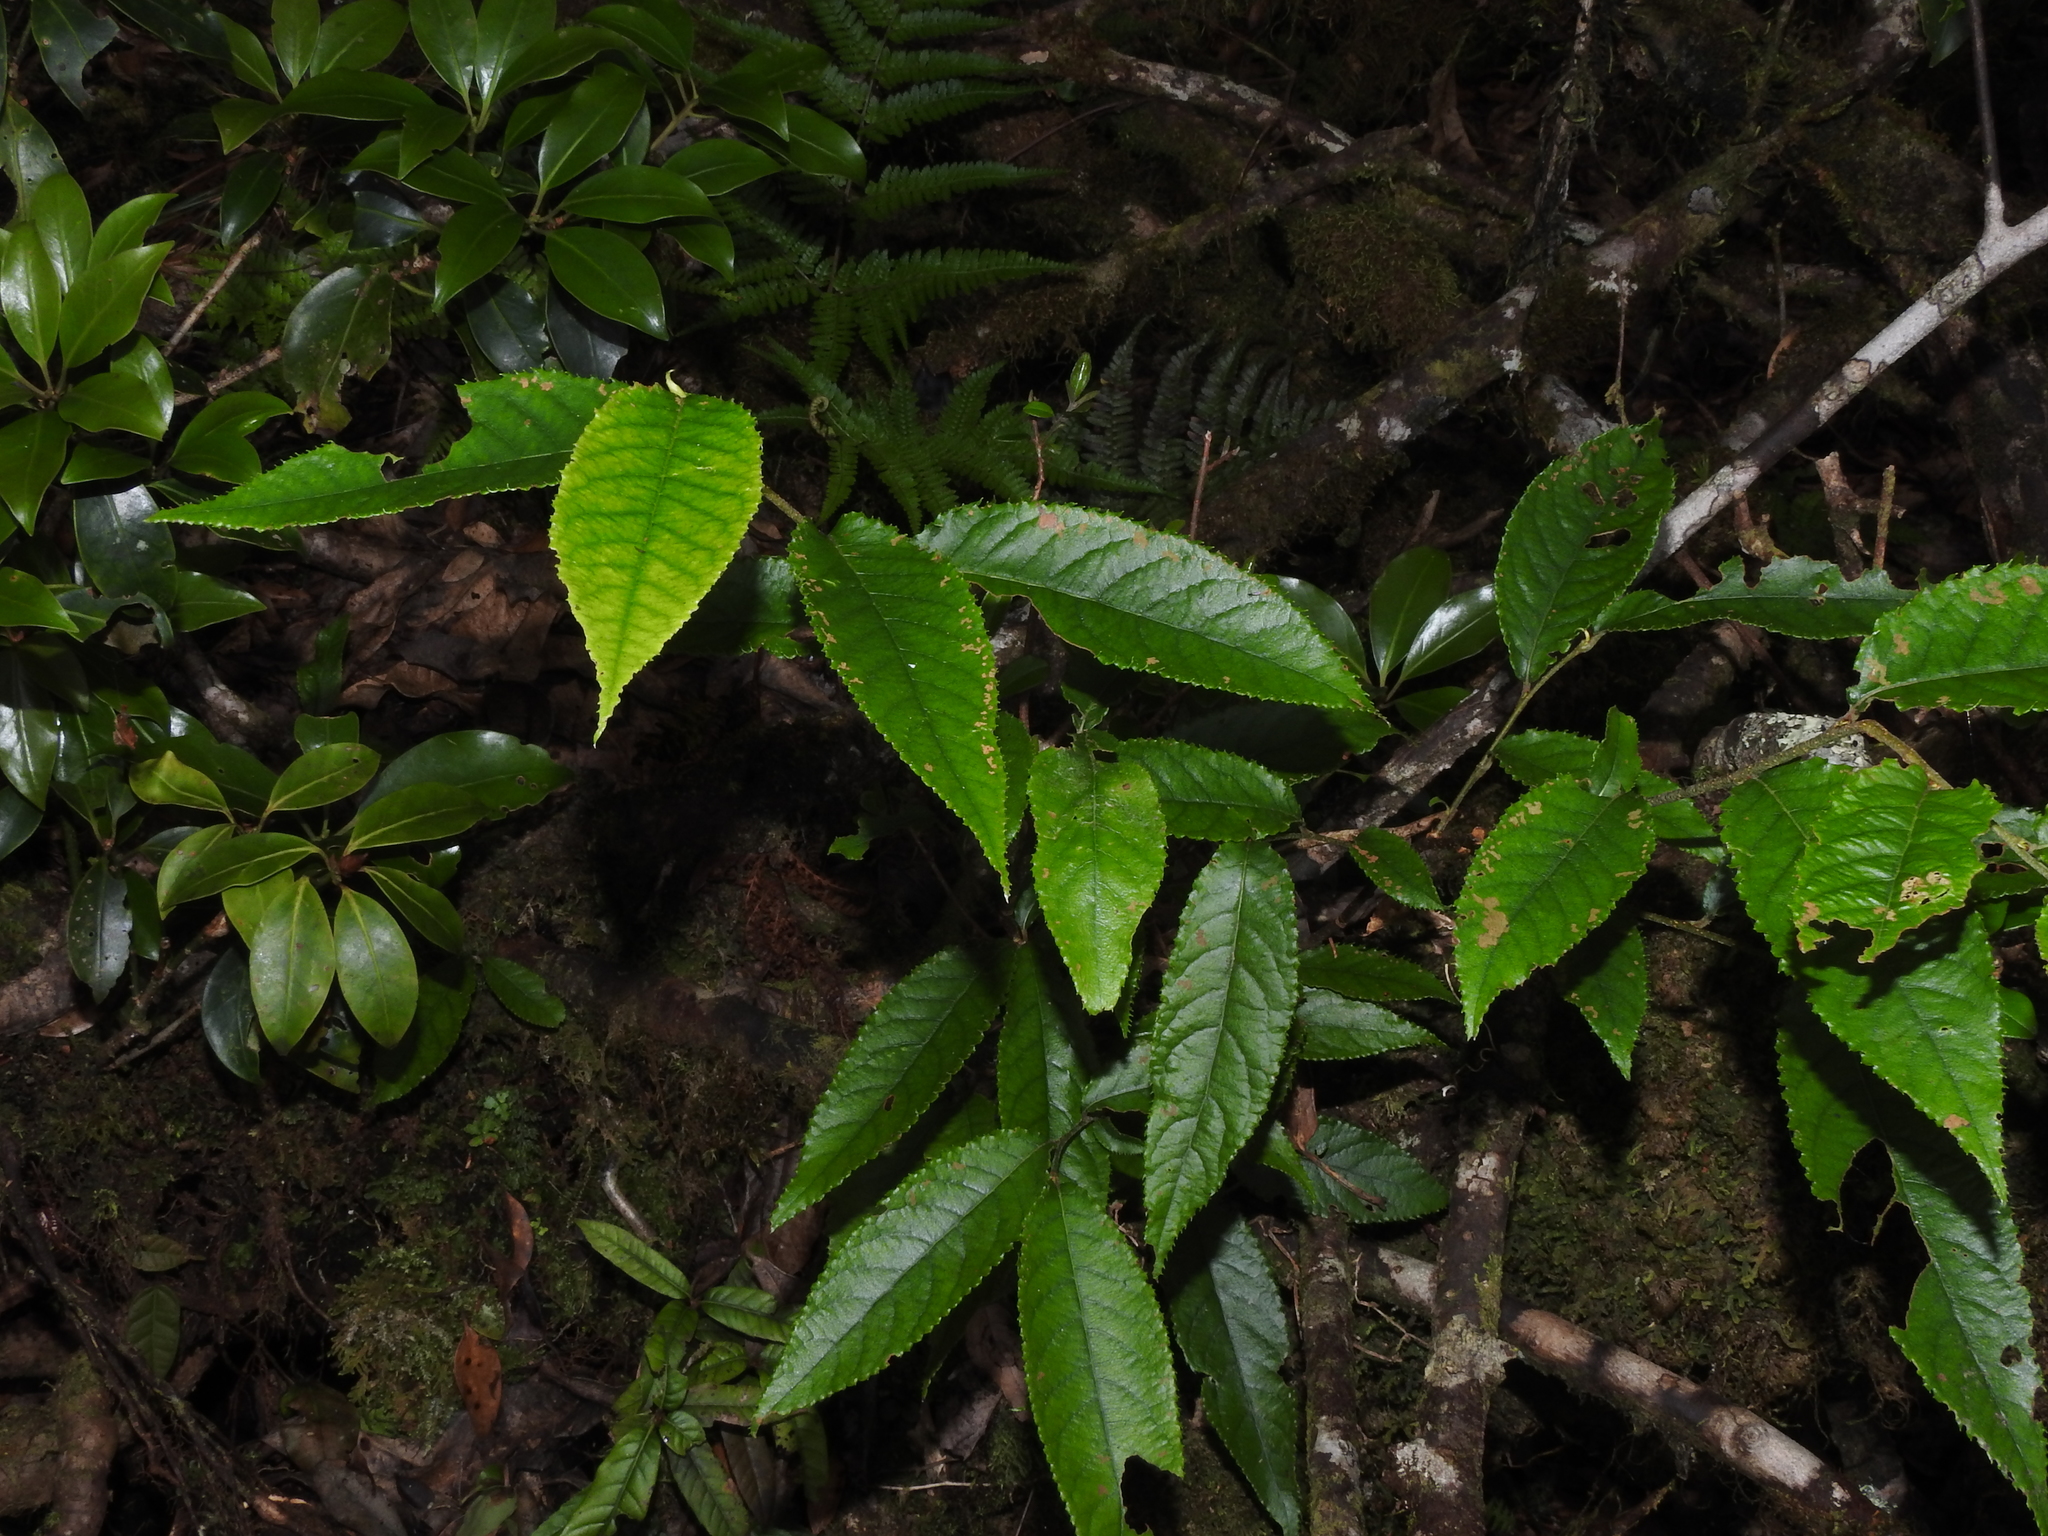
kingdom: Plantae
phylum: Tracheophyta
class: Magnoliopsida
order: Rosales
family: Rosaceae
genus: Pourthiaea
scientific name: Pourthiaea beauverdiana
